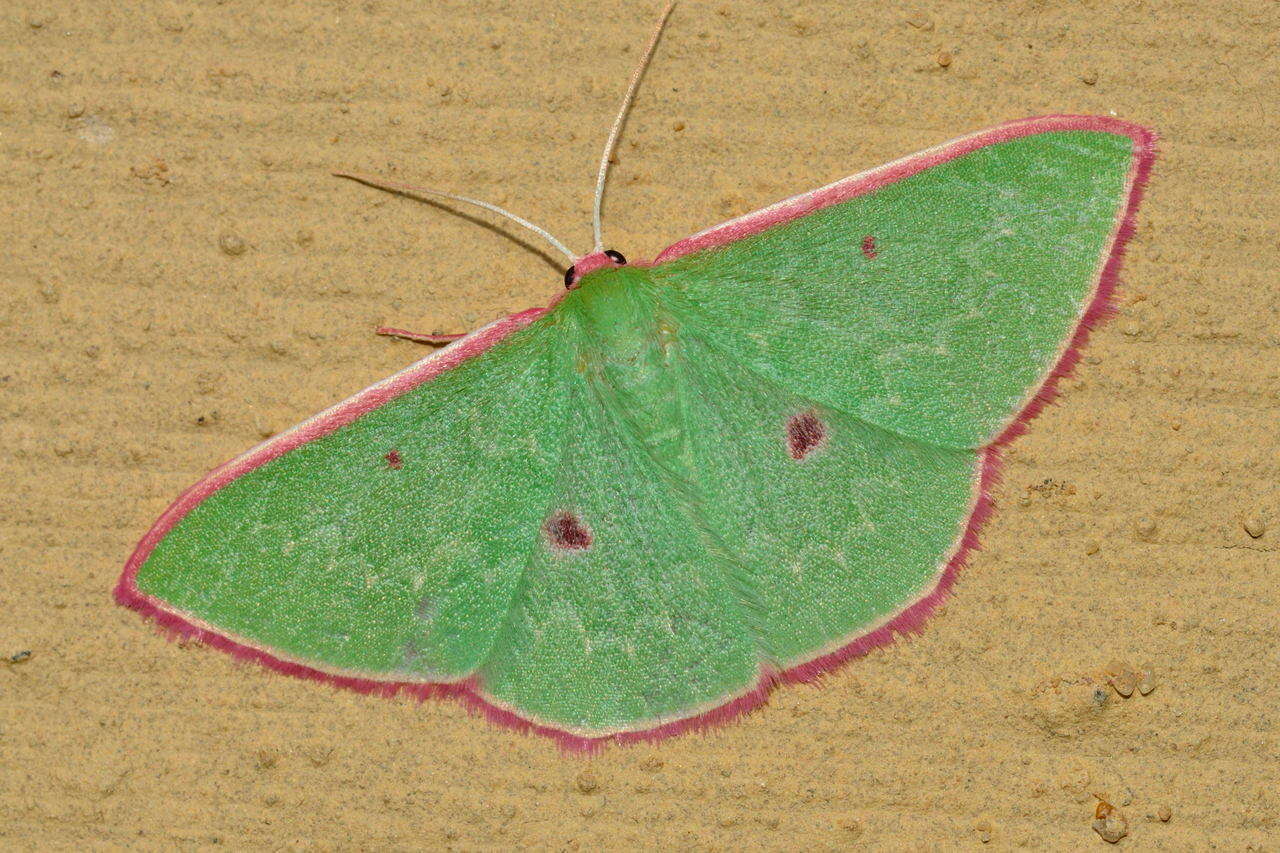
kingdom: Animalia
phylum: Arthropoda
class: Insecta
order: Lepidoptera
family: Geometridae
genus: Chlorocoma
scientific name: Chlorocoma cadmaria
